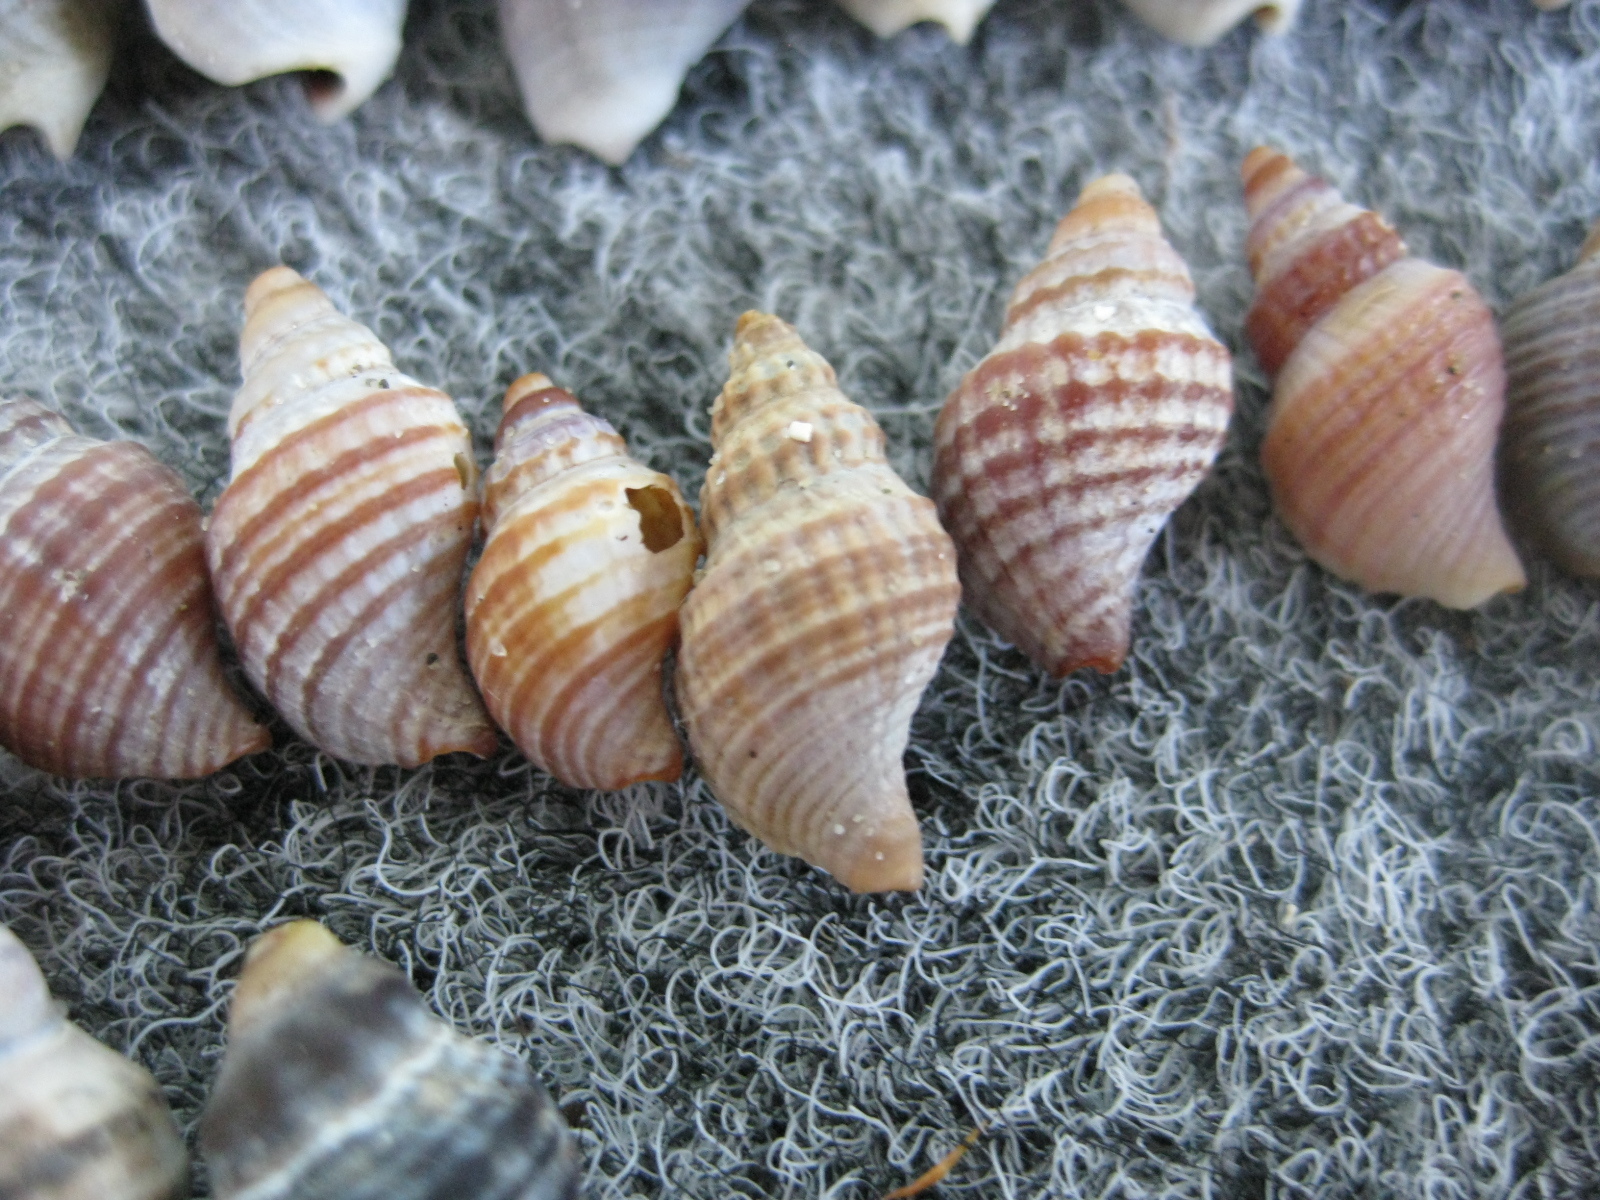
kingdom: Animalia
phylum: Mollusca
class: Gastropoda
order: Neogastropoda
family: Muricidae
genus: Xymene
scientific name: Xymene plebeius
